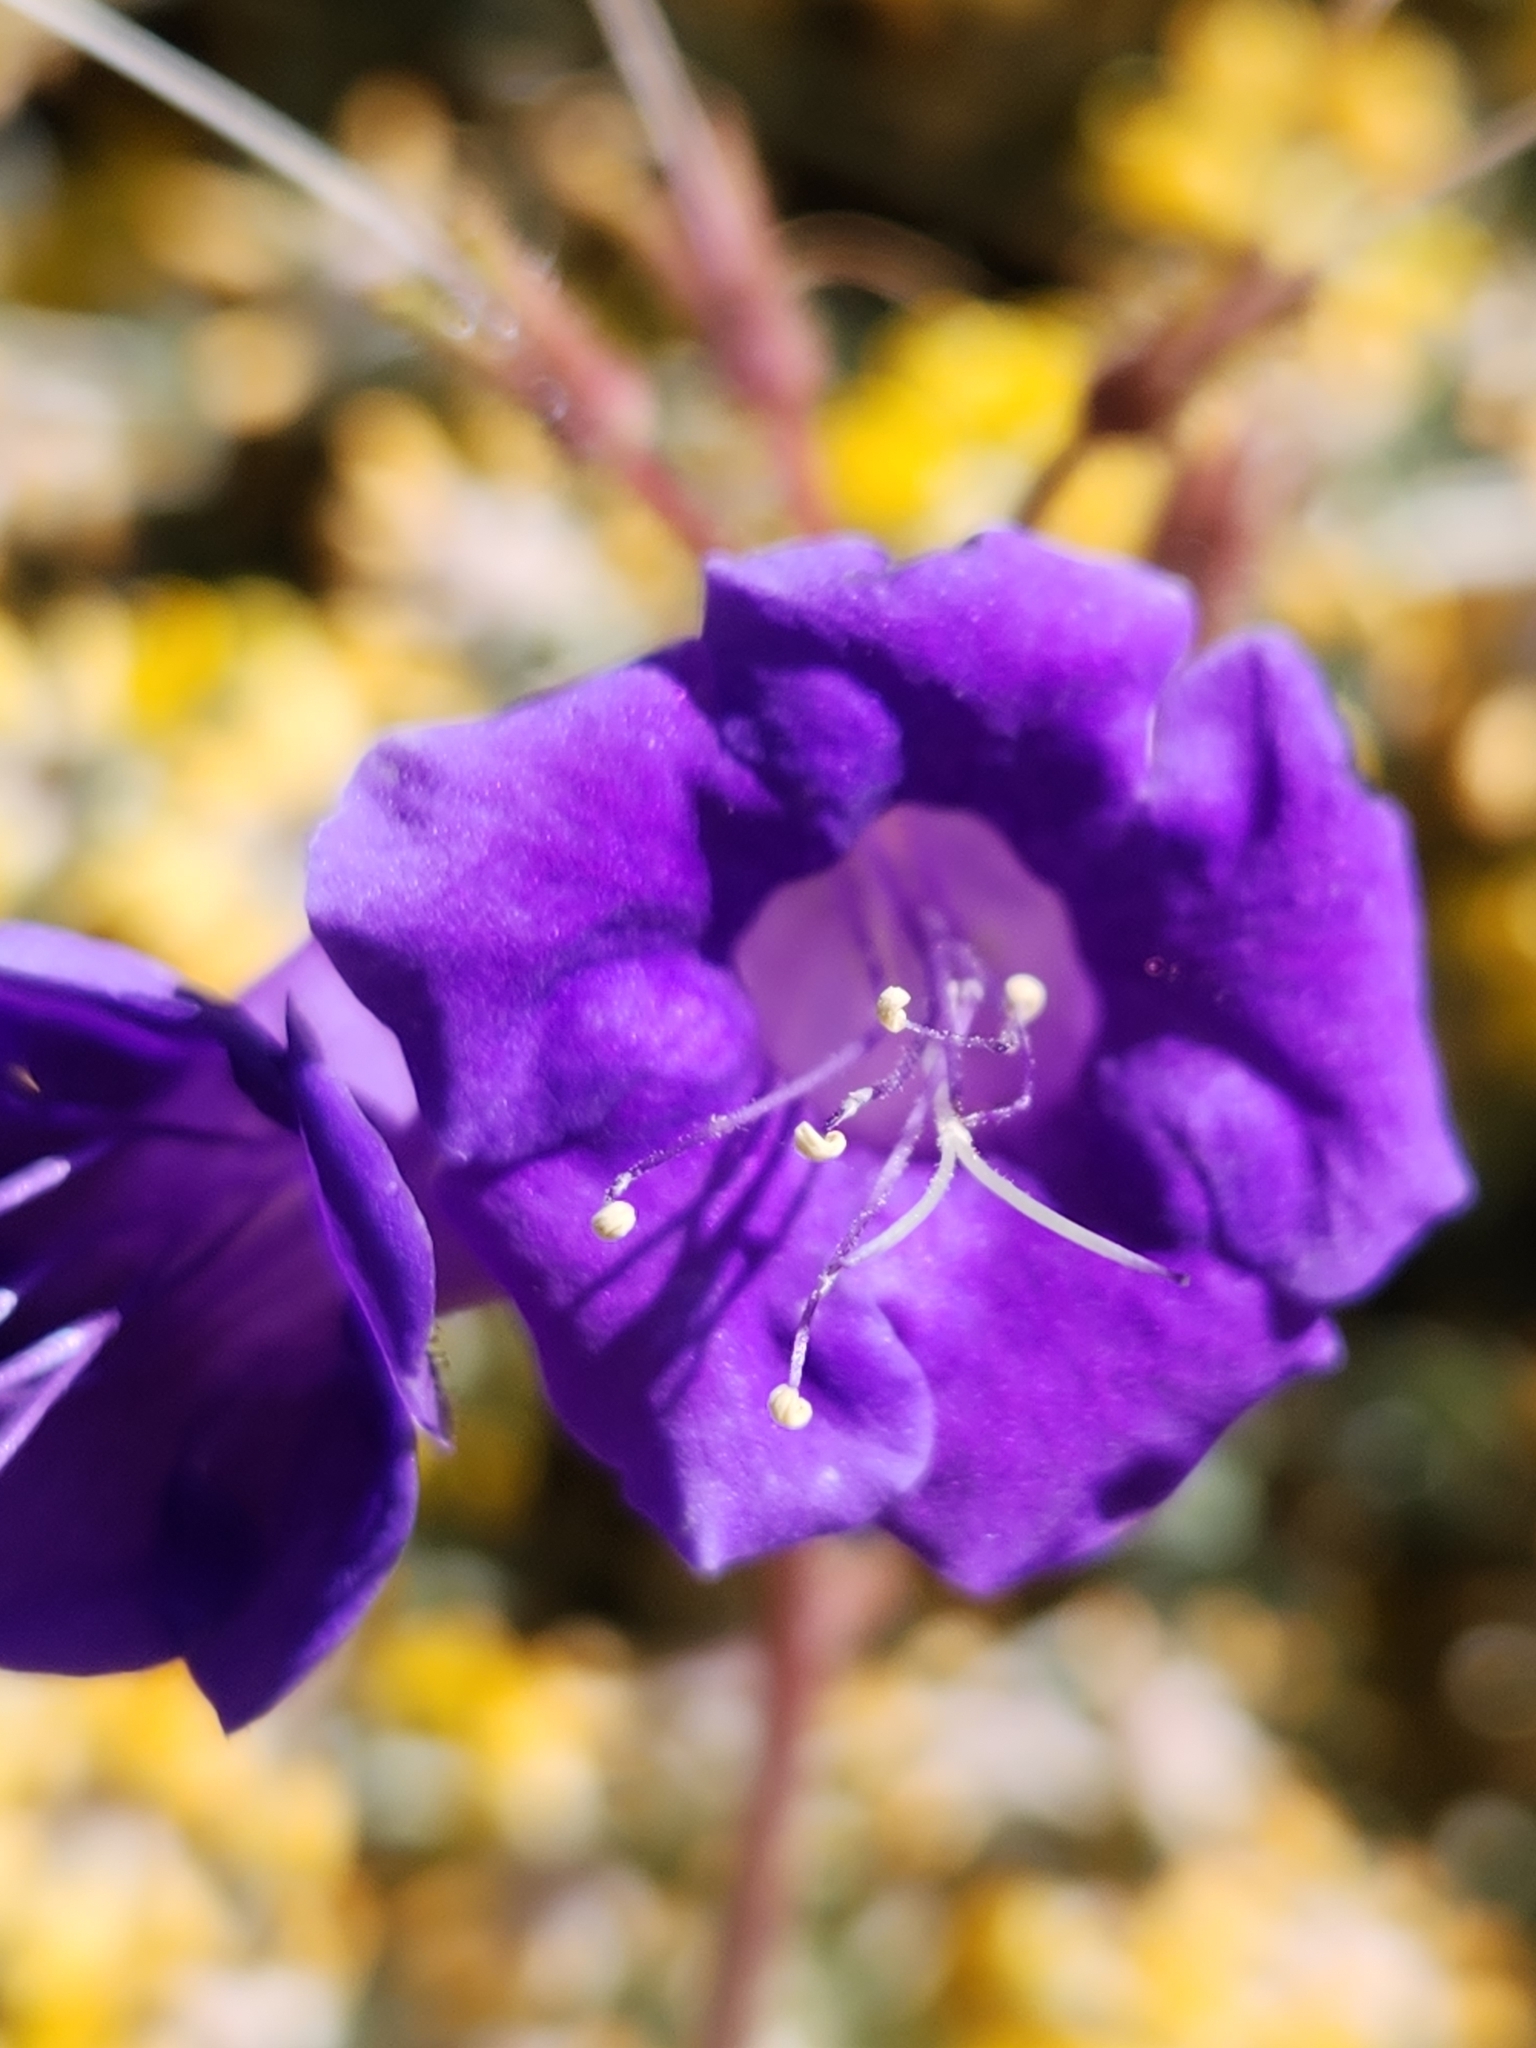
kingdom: Plantae
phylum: Tracheophyta
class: Magnoliopsida
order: Boraginales
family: Hydrophyllaceae
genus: Phacelia
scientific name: Phacelia minor
